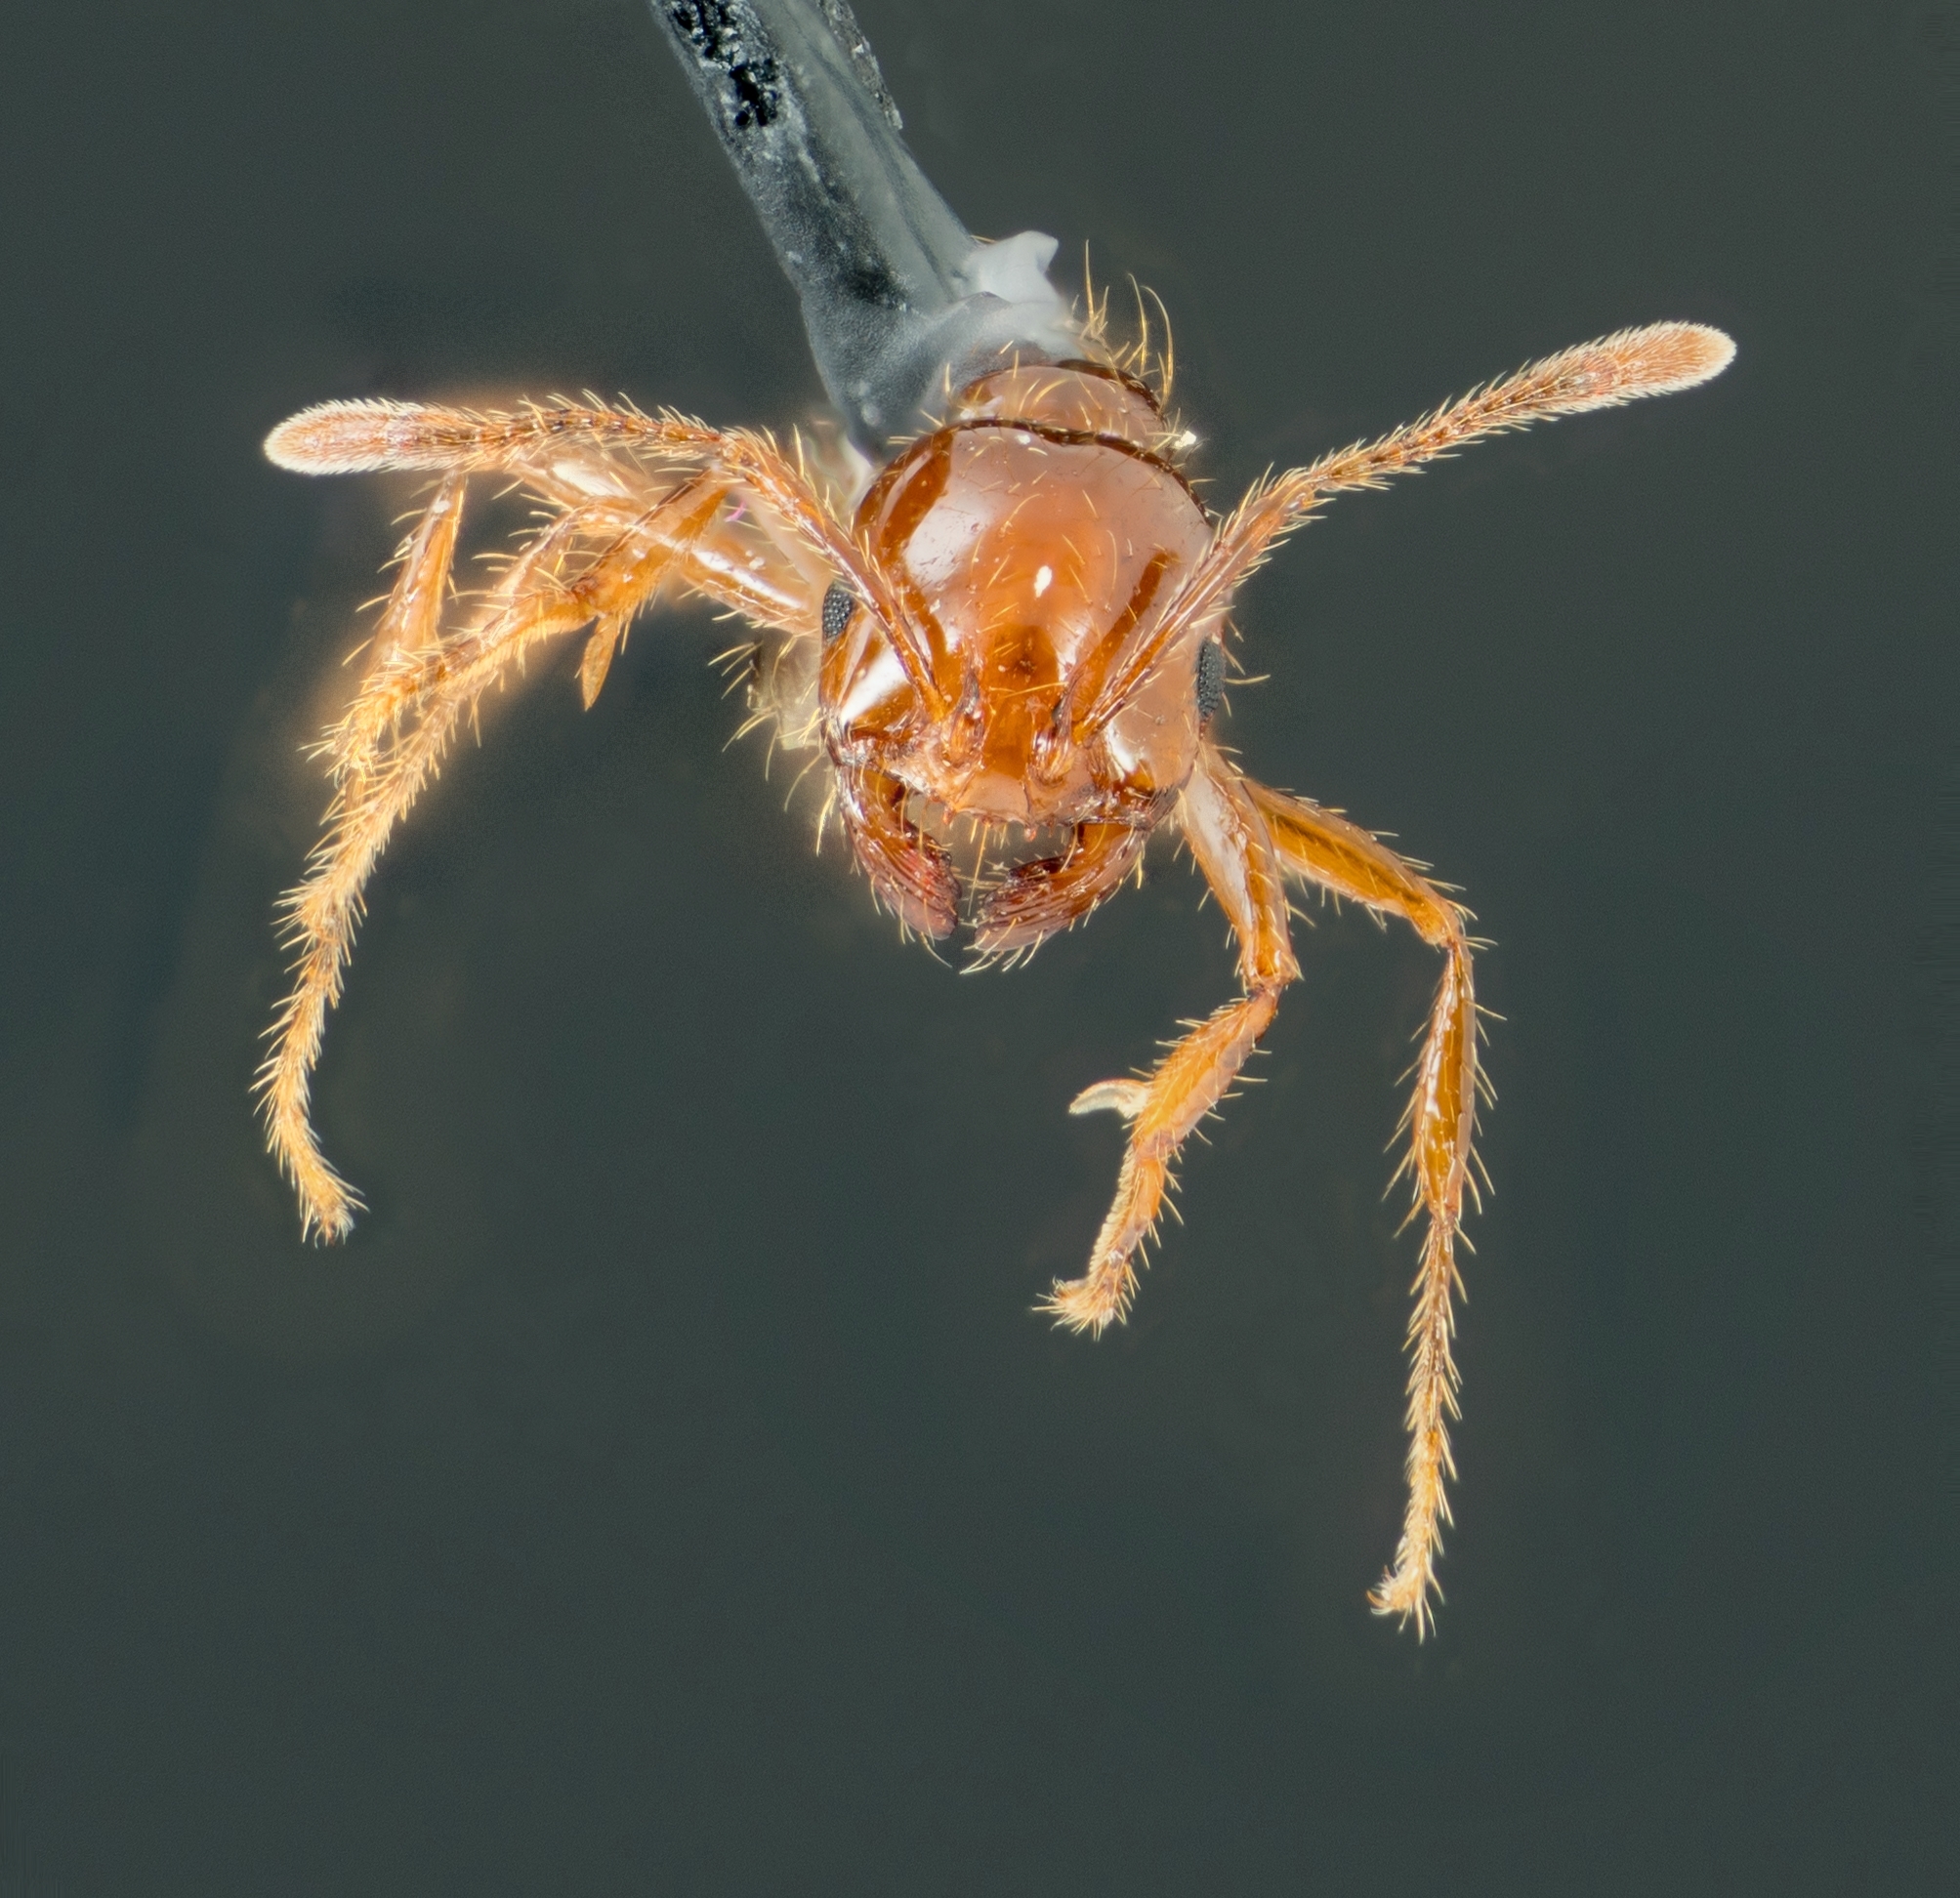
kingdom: Animalia
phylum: Arthropoda
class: Insecta
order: Hymenoptera
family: Formicidae
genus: Solenopsis
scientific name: Solenopsis invicta
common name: Red imported fire ant
